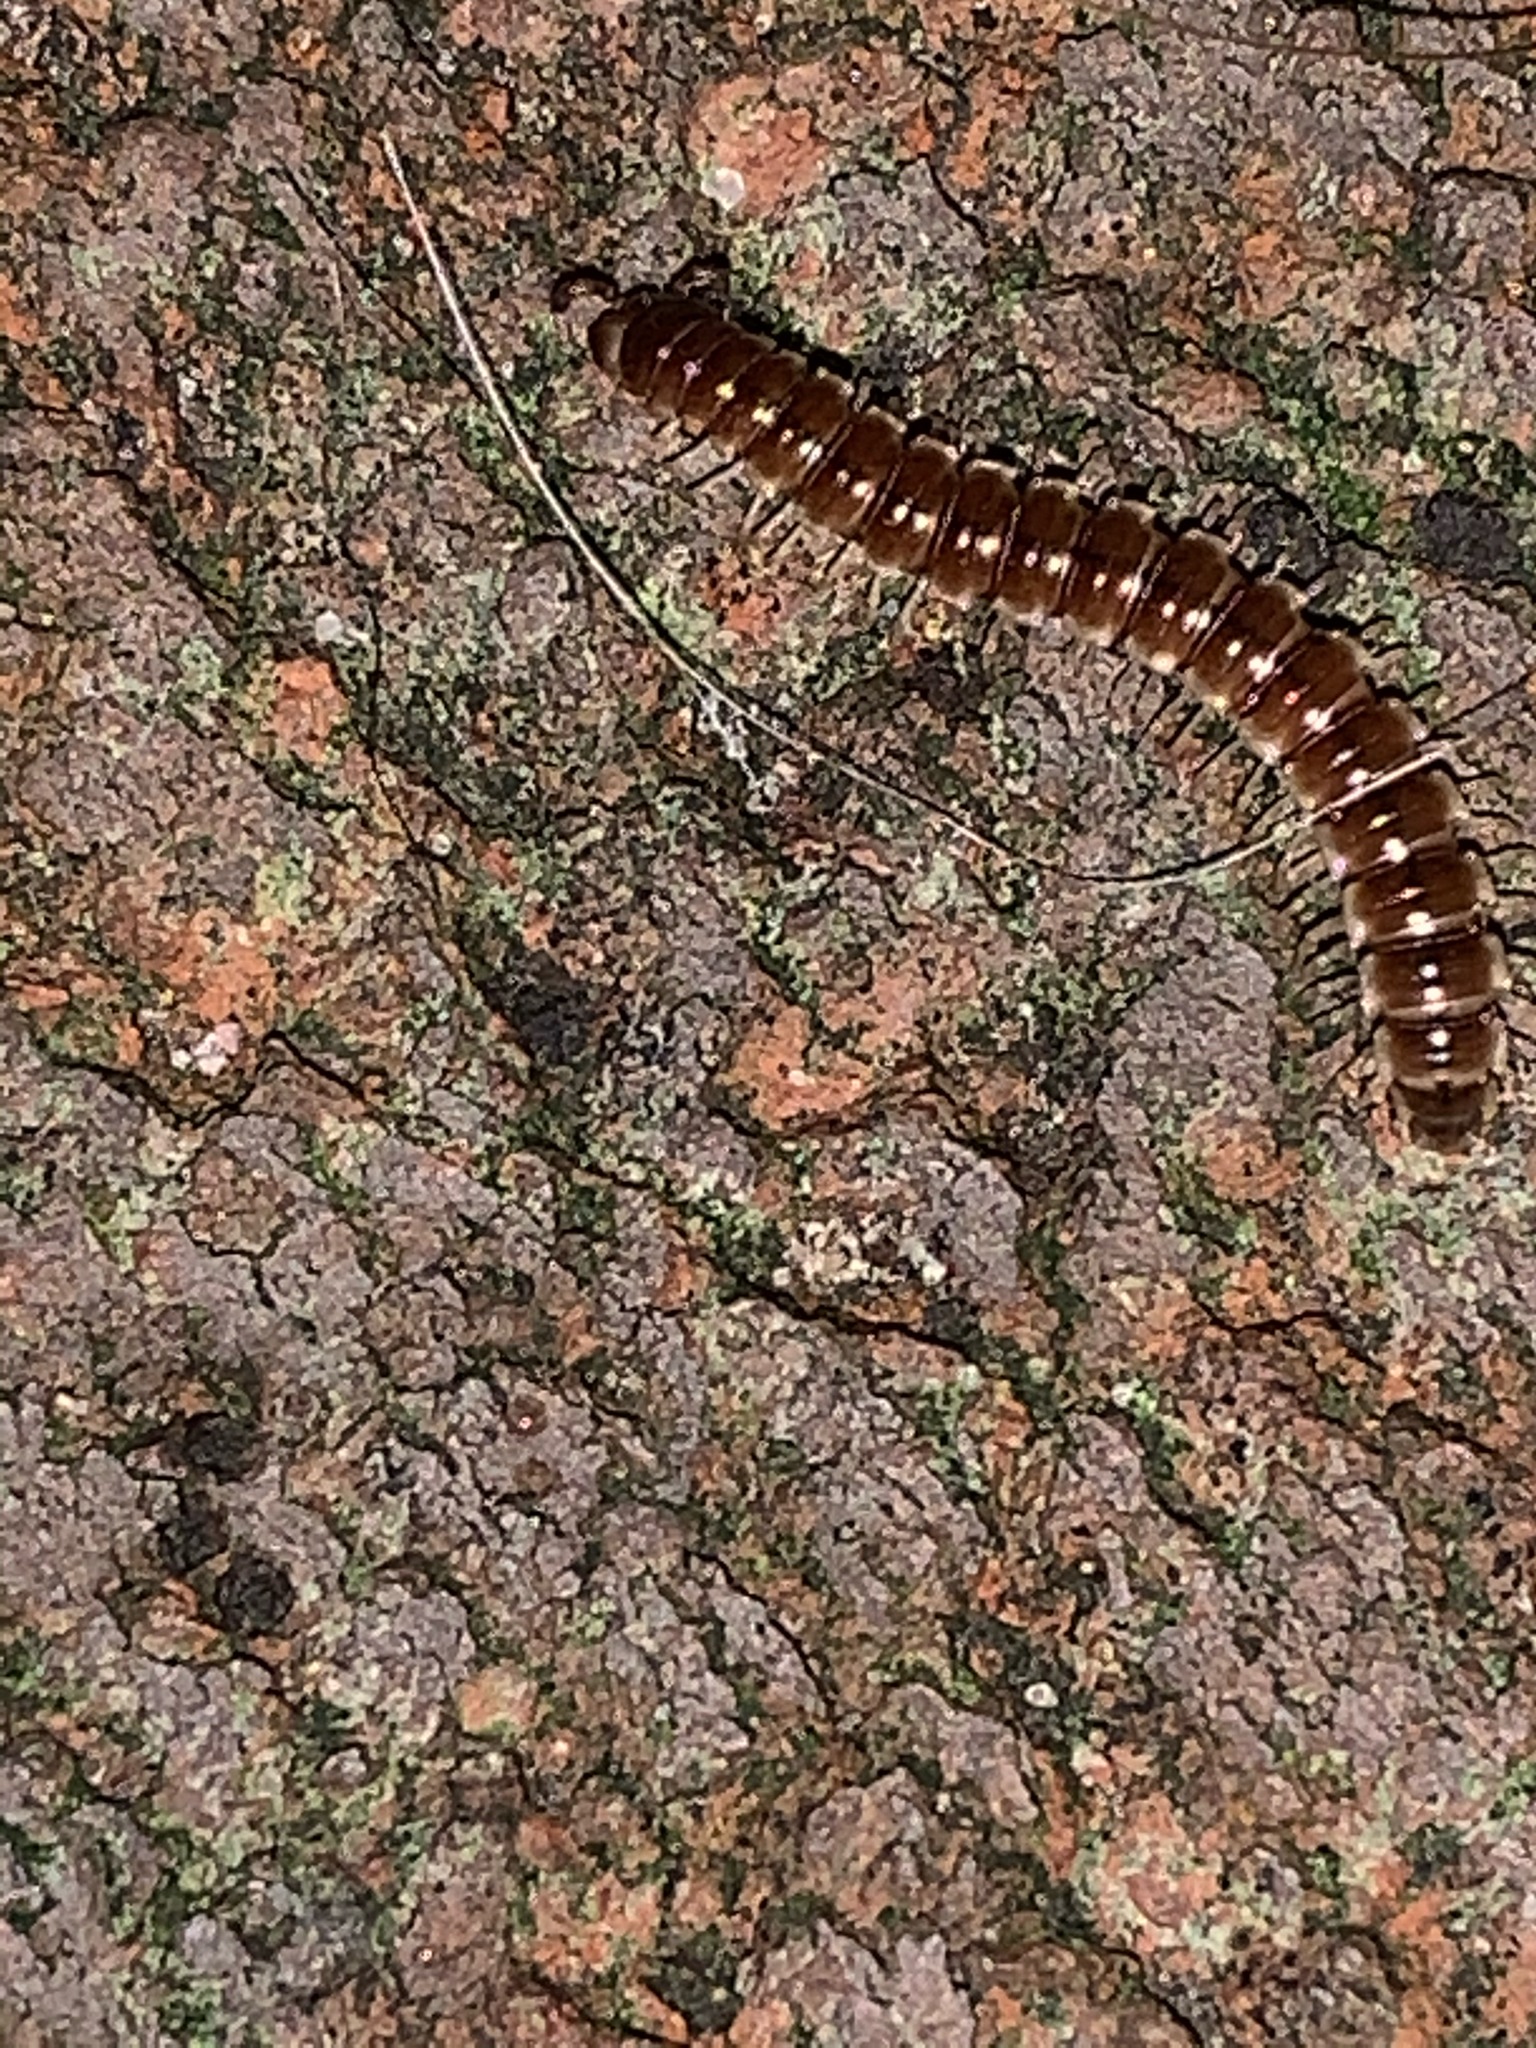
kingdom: Animalia
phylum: Arthropoda
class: Diplopoda
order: Polydesmida
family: Paradoxosomatidae
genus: Oxidus
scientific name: Oxidus gracilis
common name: Greenhouse millipede
